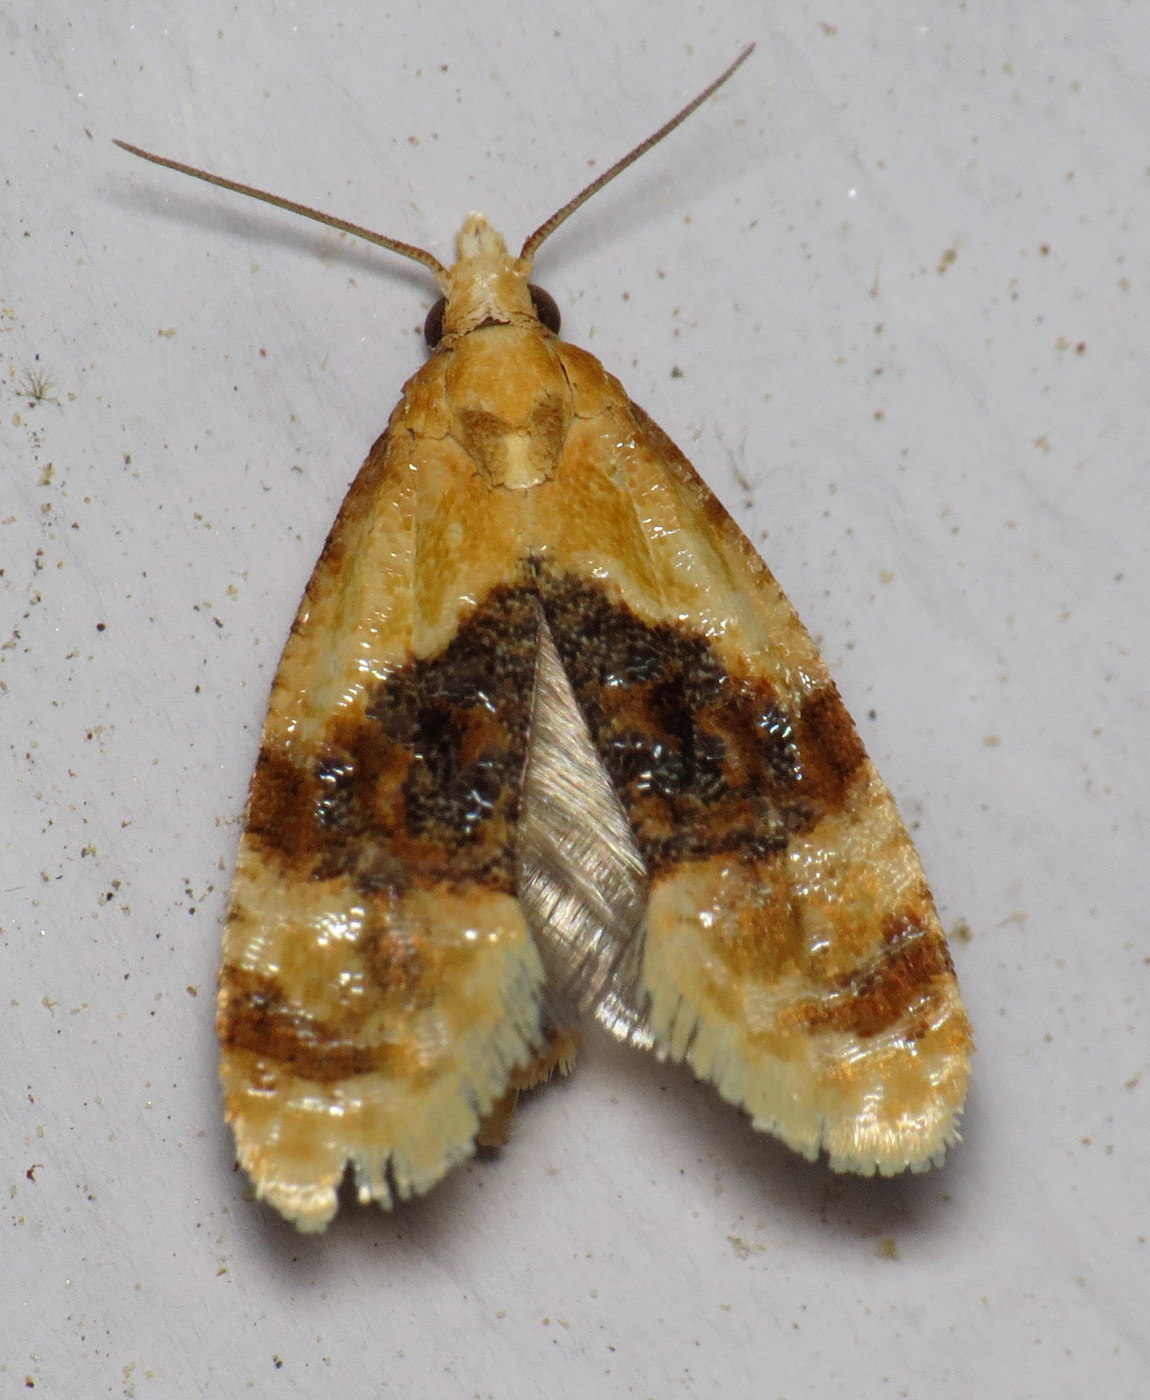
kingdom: Animalia
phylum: Arthropoda
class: Insecta
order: Lepidoptera
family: Tortricidae
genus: Cochylis
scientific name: Cochylis Cochylichroa hospes
